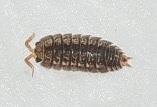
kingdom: Animalia
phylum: Arthropoda
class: Malacostraca
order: Isopoda
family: Trachelipodidae
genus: Nagurus
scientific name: Nagurus
